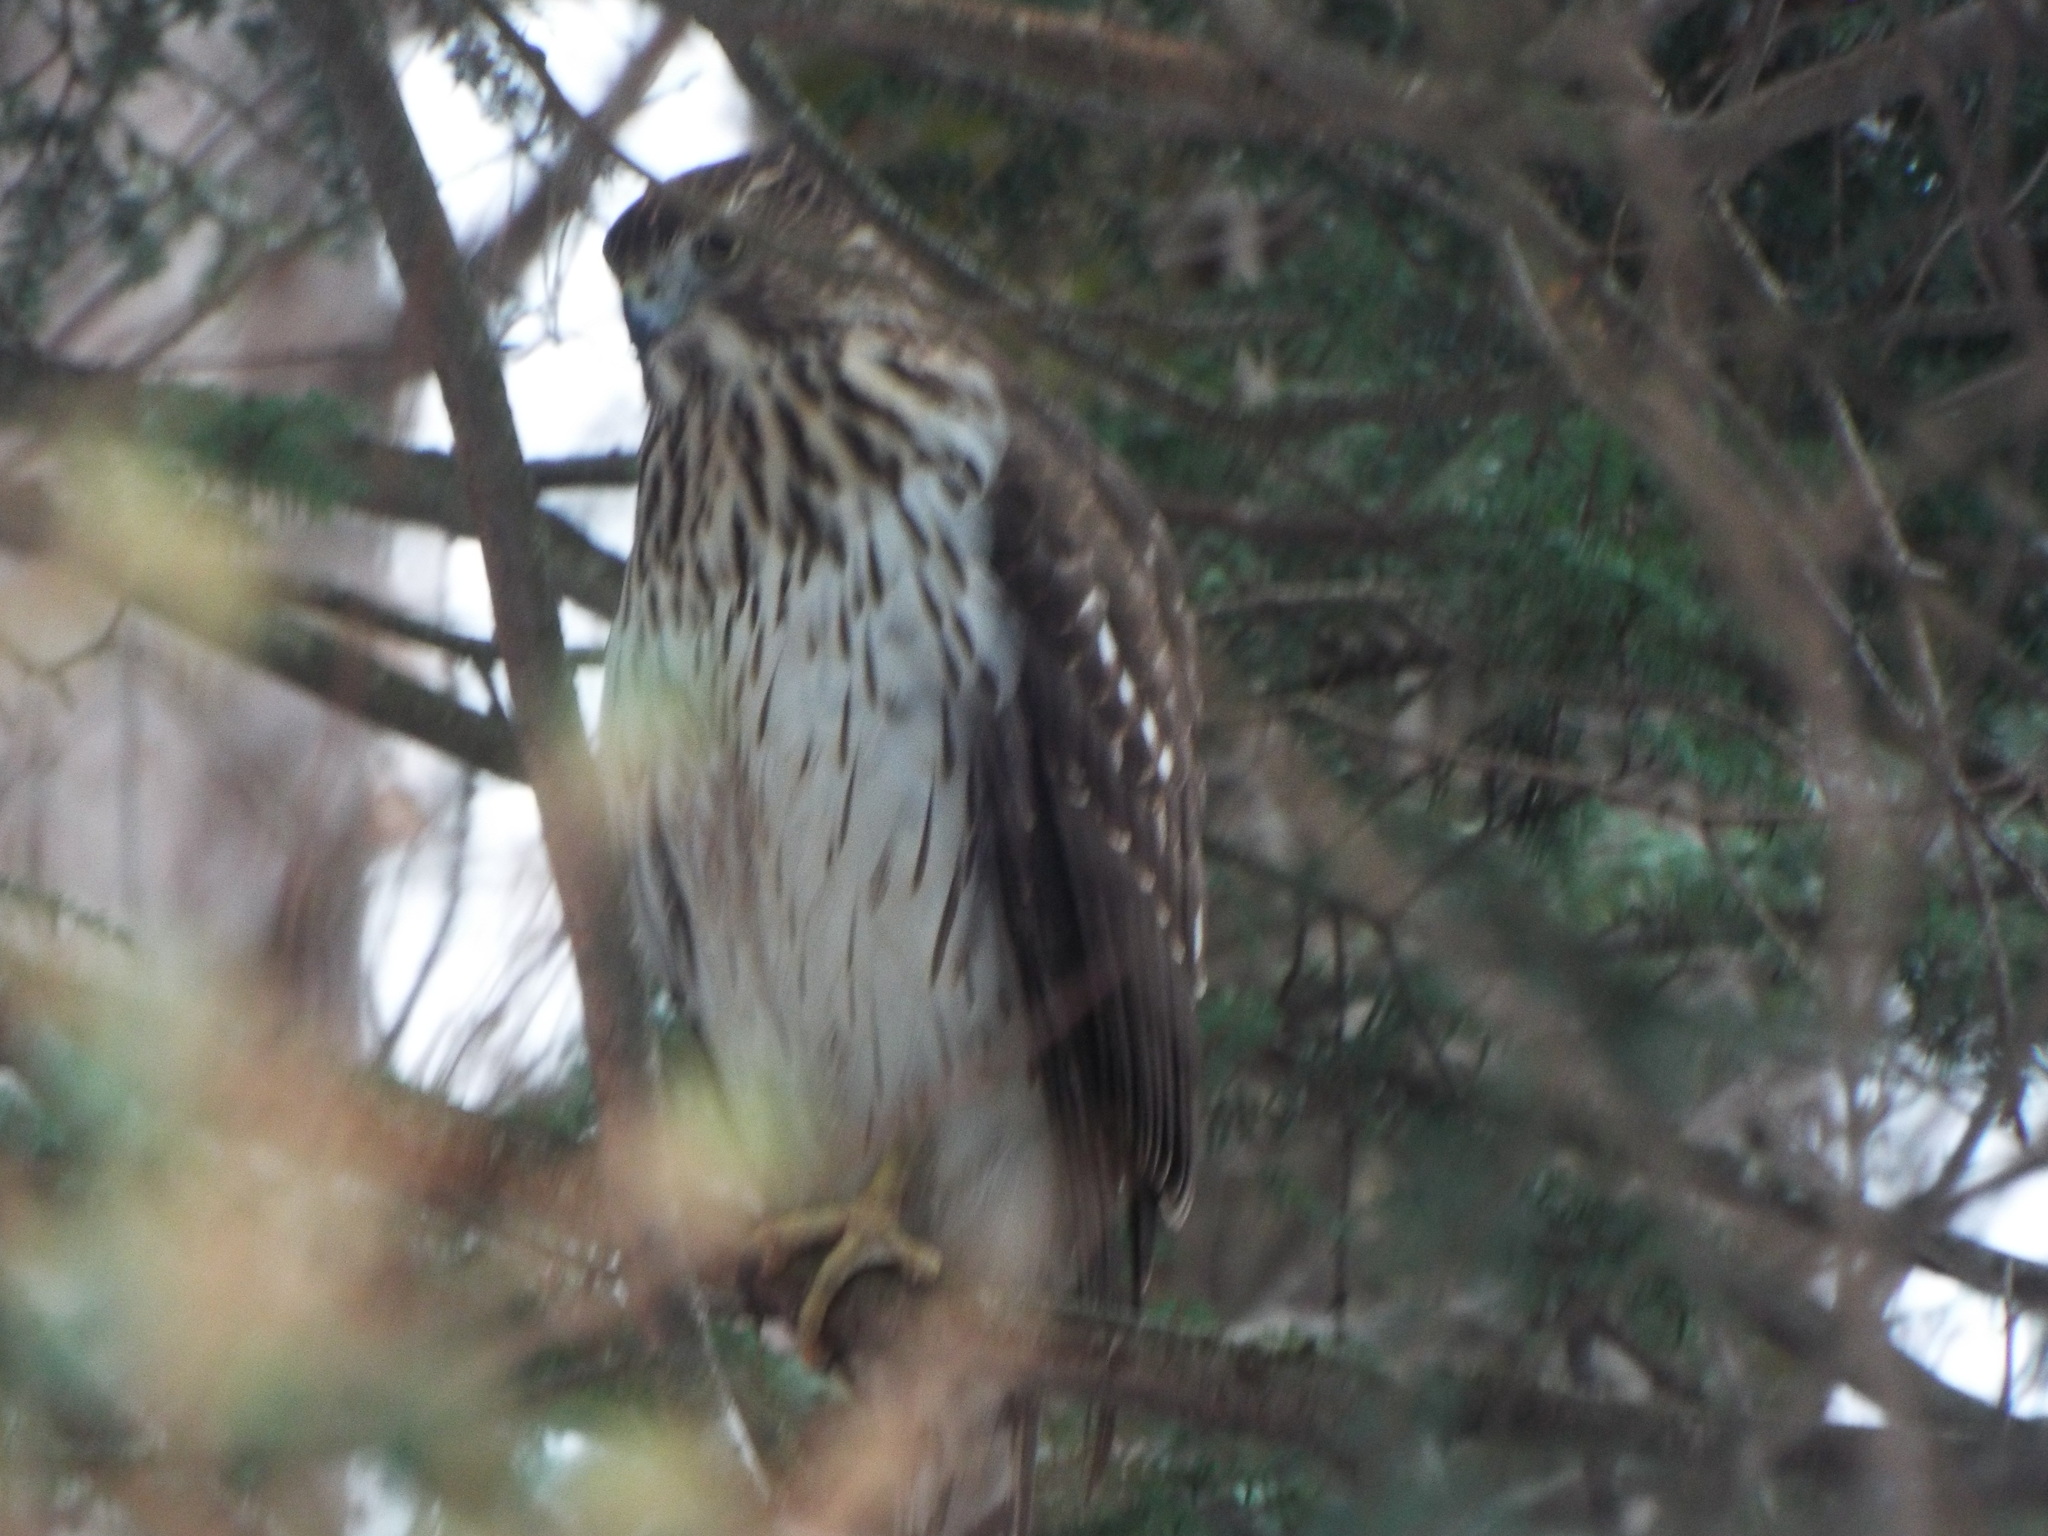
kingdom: Animalia
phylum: Chordata
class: Aves
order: Accipitriformes
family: Accipitridae
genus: Accipiter
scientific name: Accipiter cooperii
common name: Cooper's hawk
